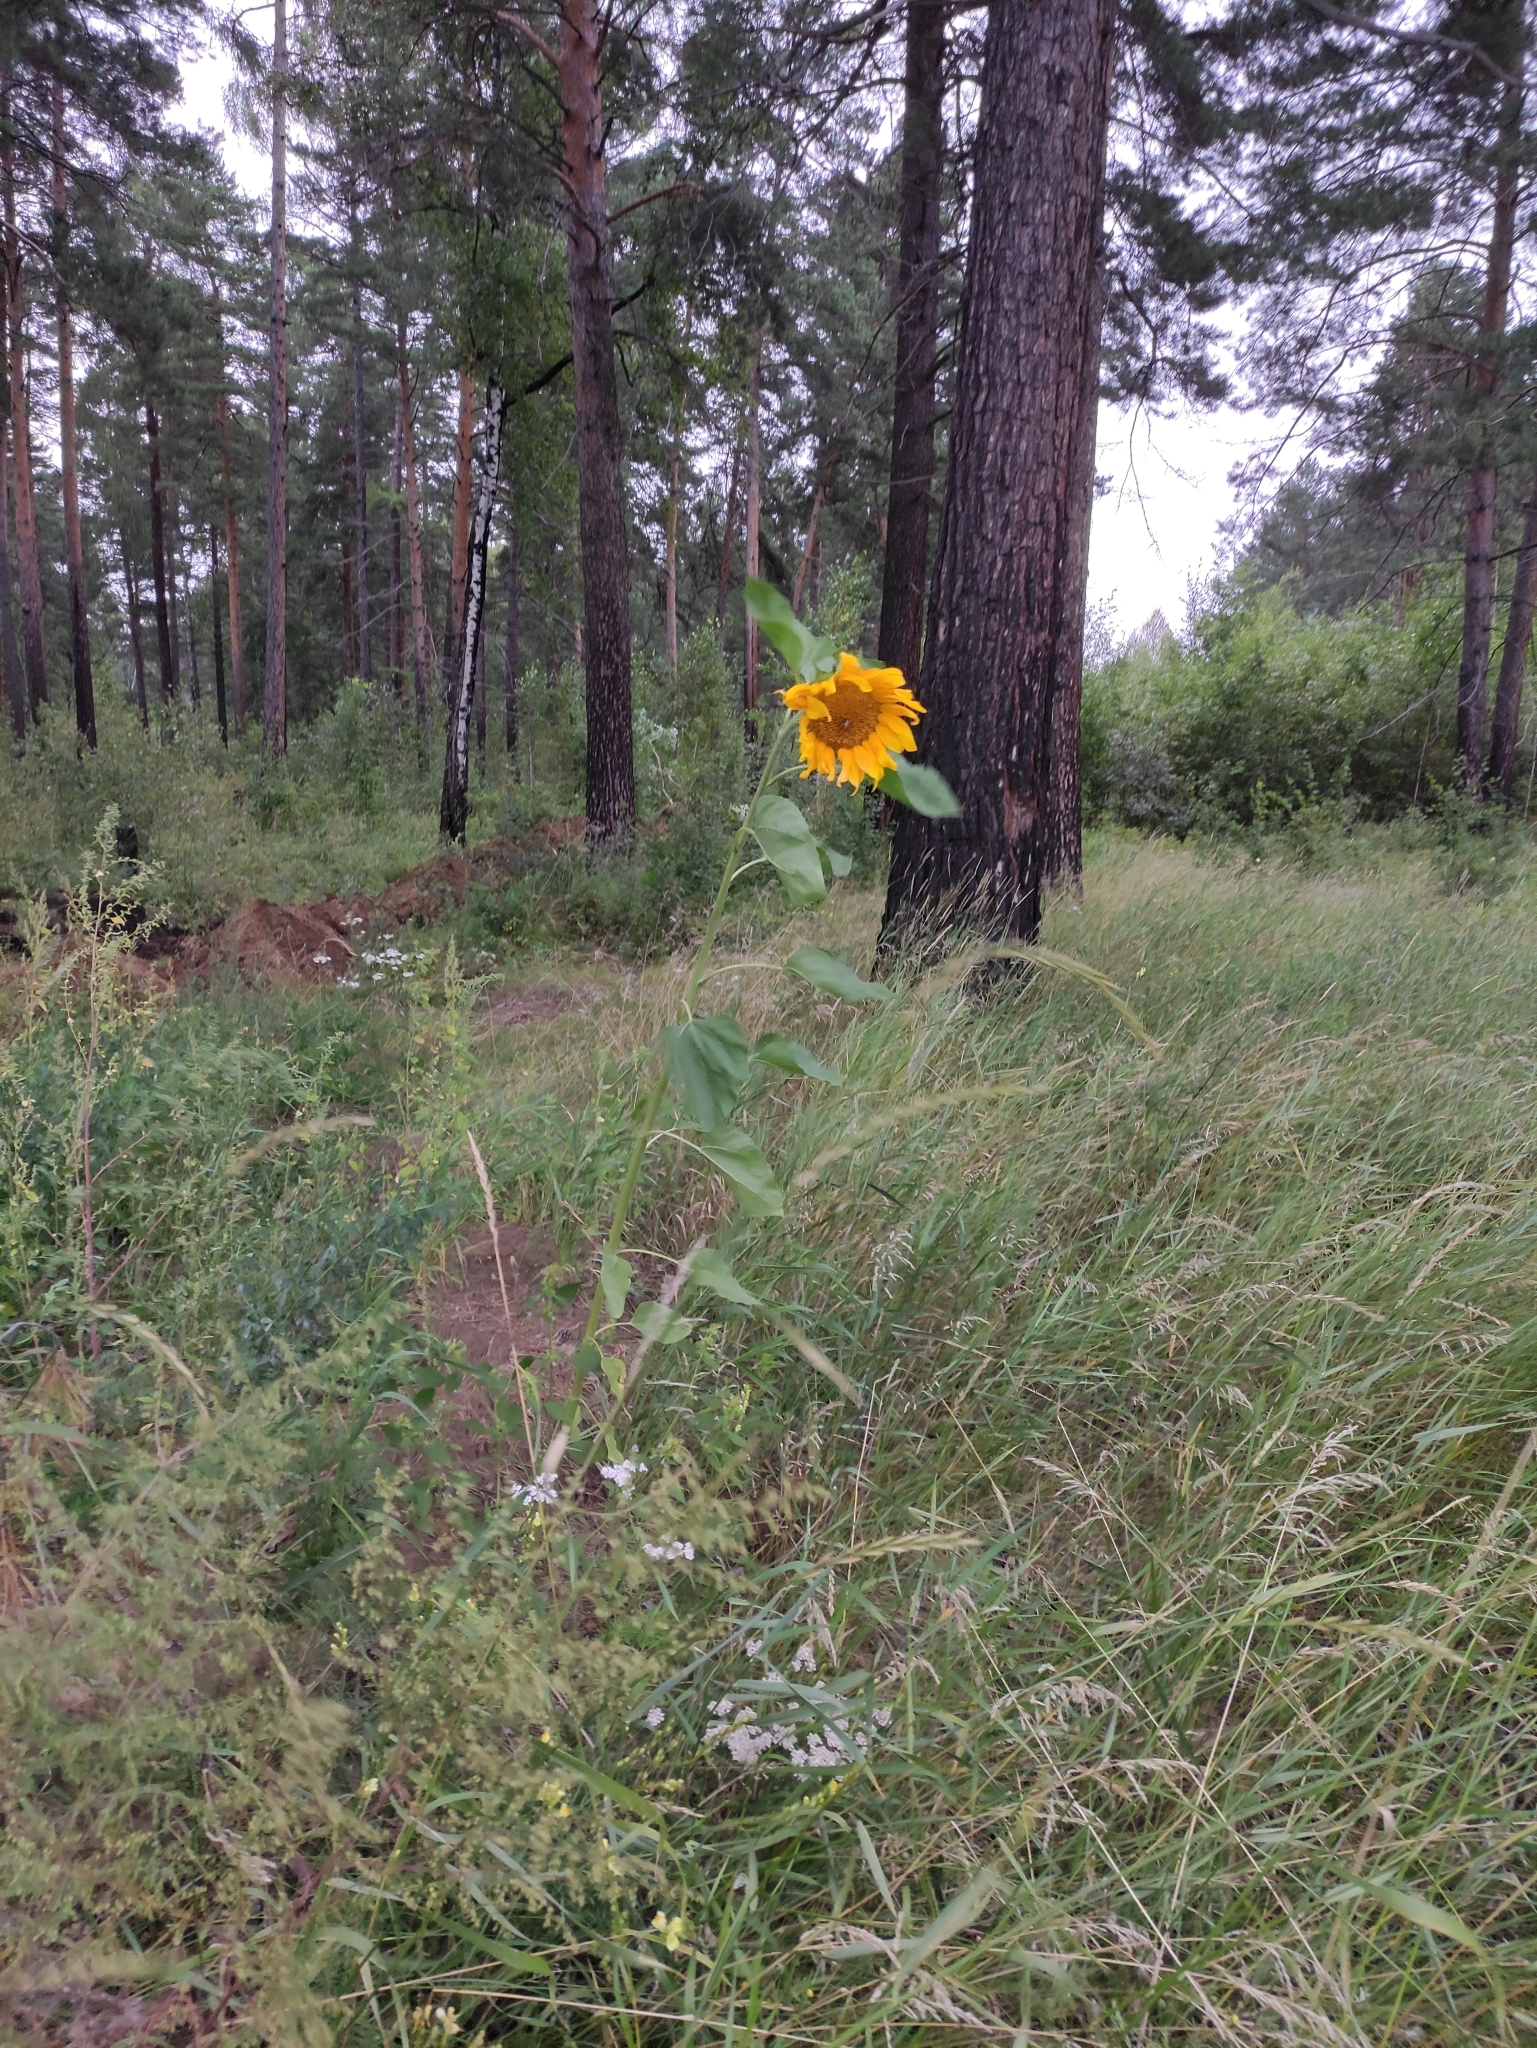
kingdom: Plantae
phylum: Tracheophyta
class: Magnoliopsida
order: Asterales
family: Asteraceae
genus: Helianthus
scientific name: Helianthus annuus
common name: Sunflower
